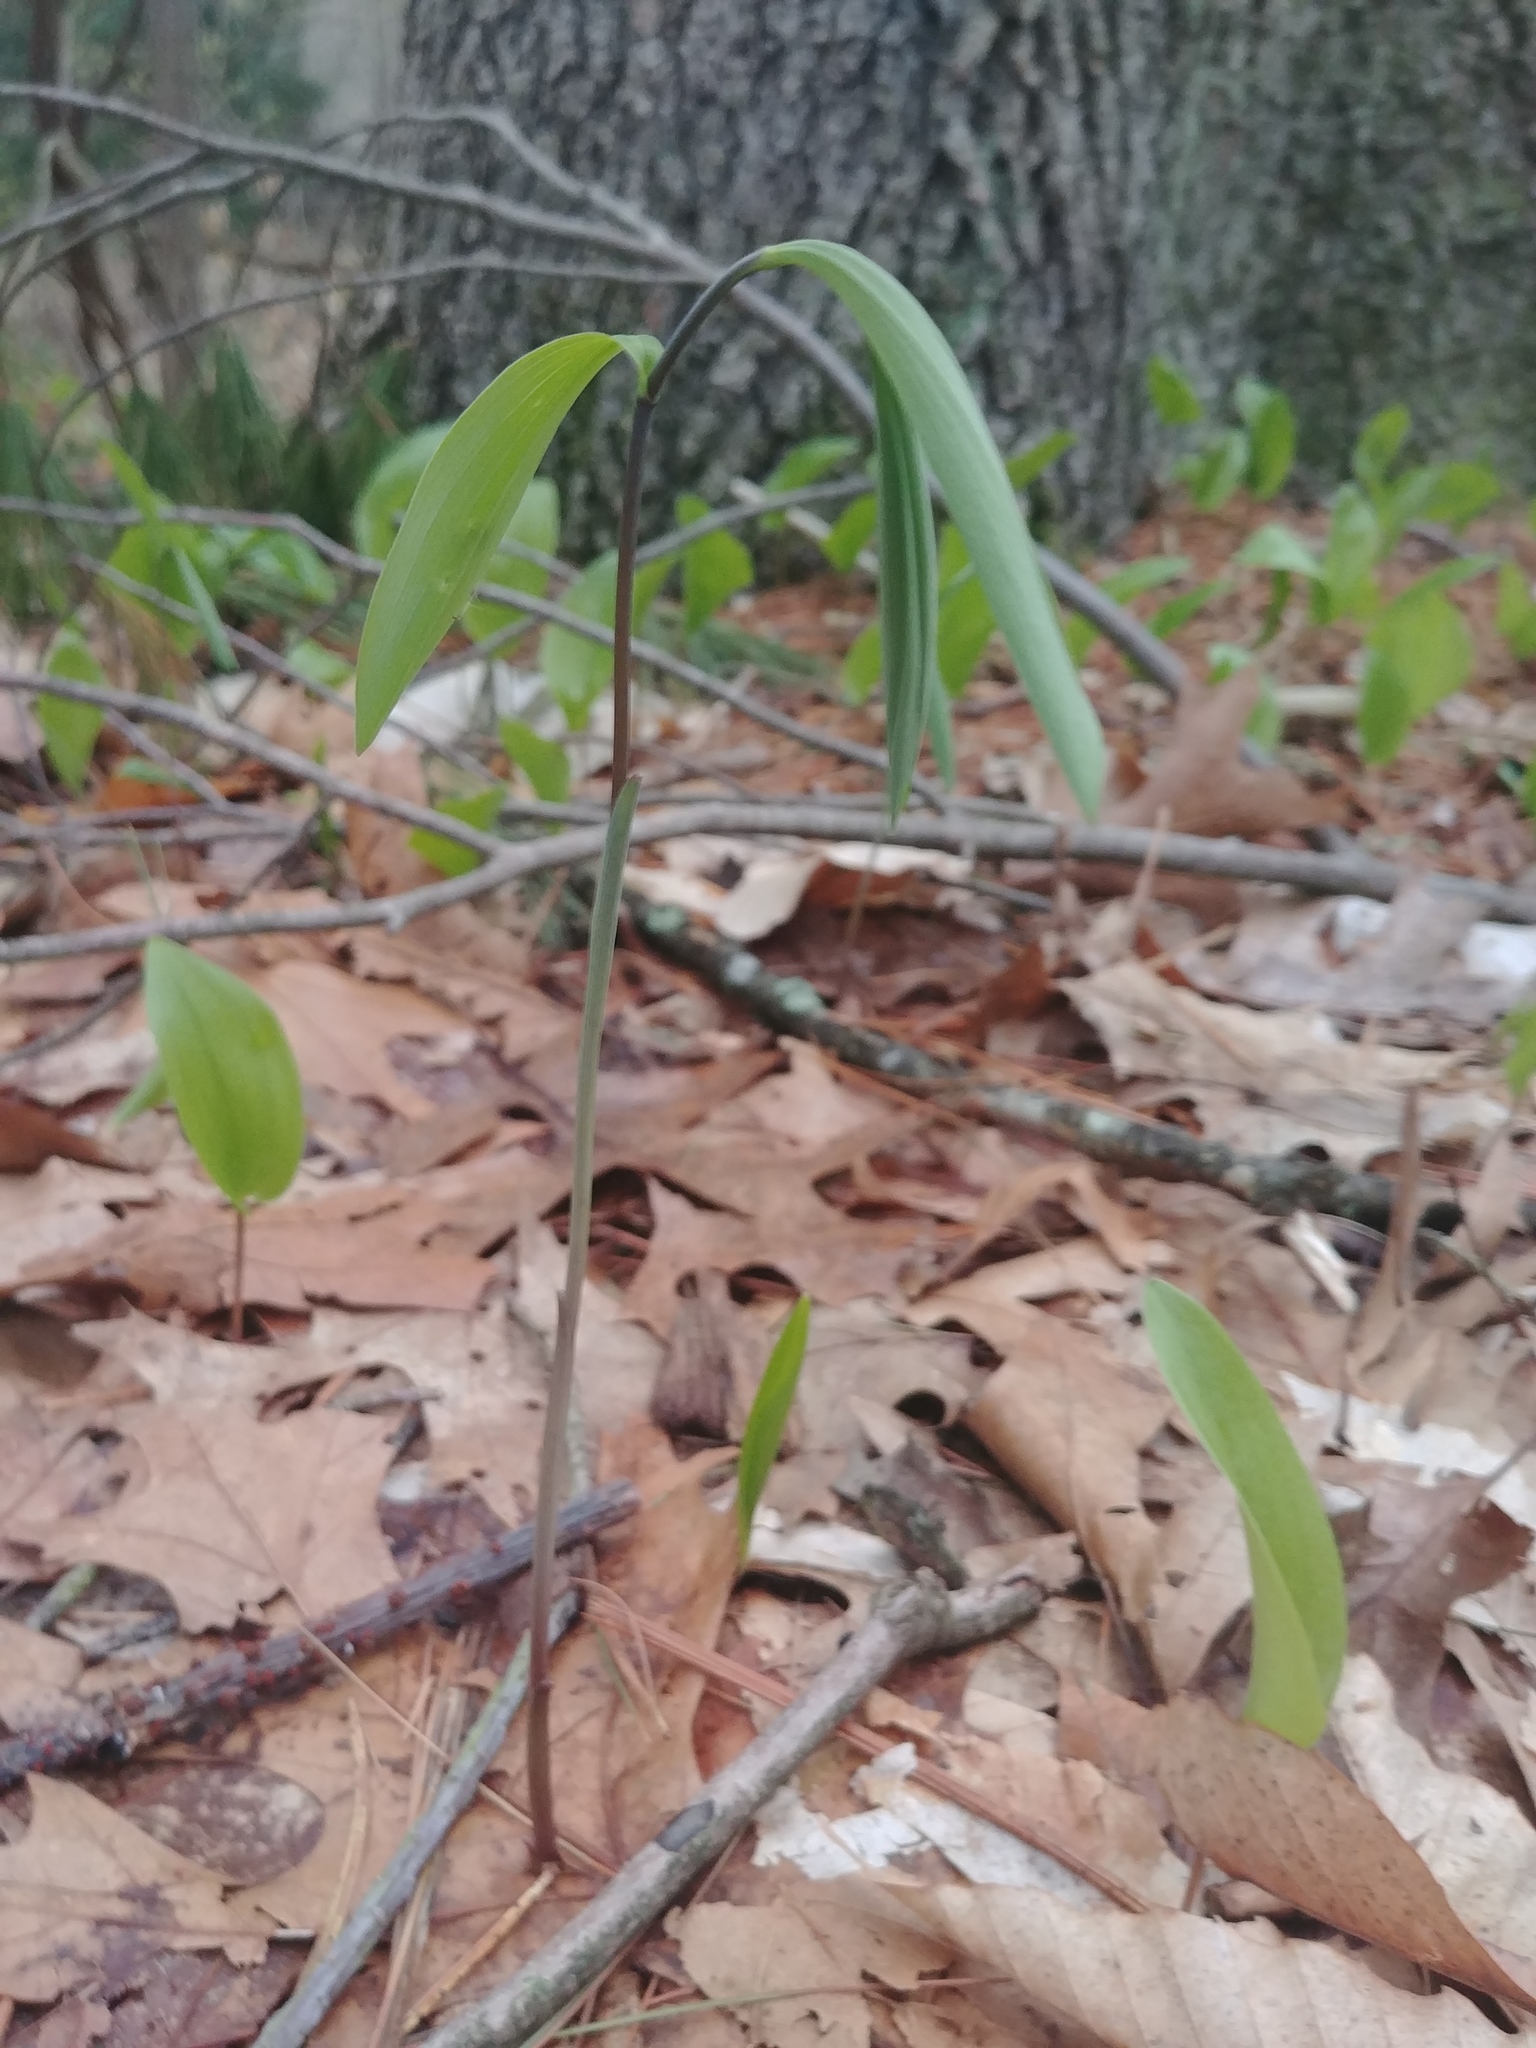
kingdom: Plantae
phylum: Tracheophyta
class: Liliopsida
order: Liliales
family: Colchicaceae
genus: Uvularia
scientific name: Uvularia sessilifolia
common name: Straw-lily
